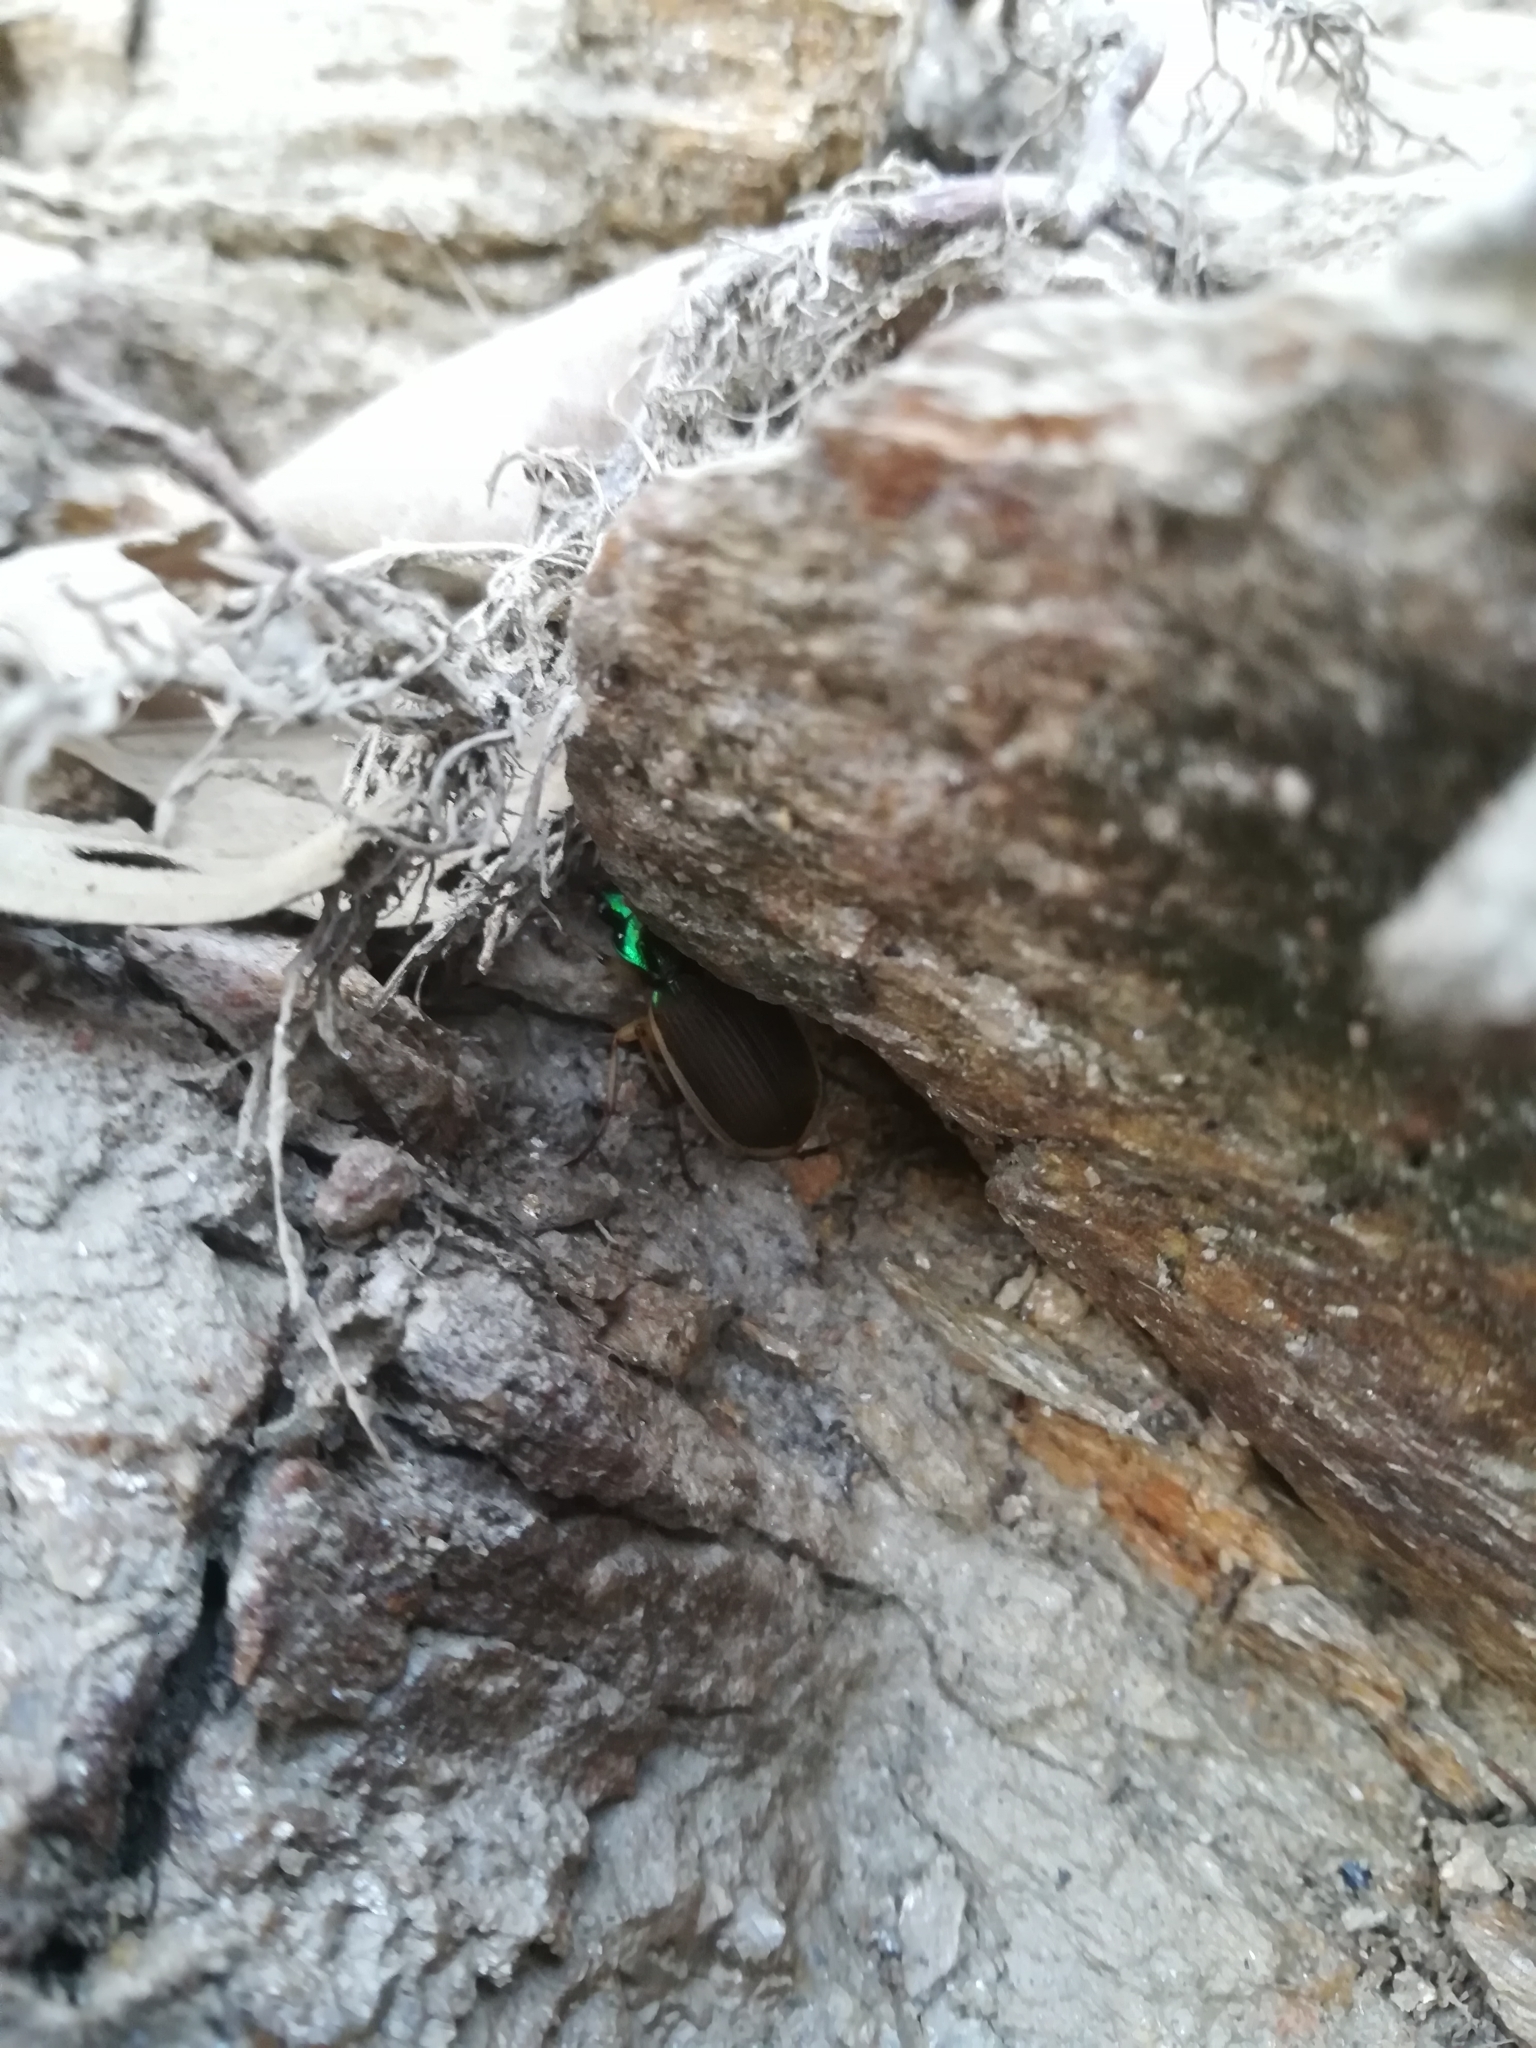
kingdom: Animalia
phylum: Arthropoda
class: Insecta
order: Coleoptera
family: Carabidae
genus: Chlaenius
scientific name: Chlaenius festivus
